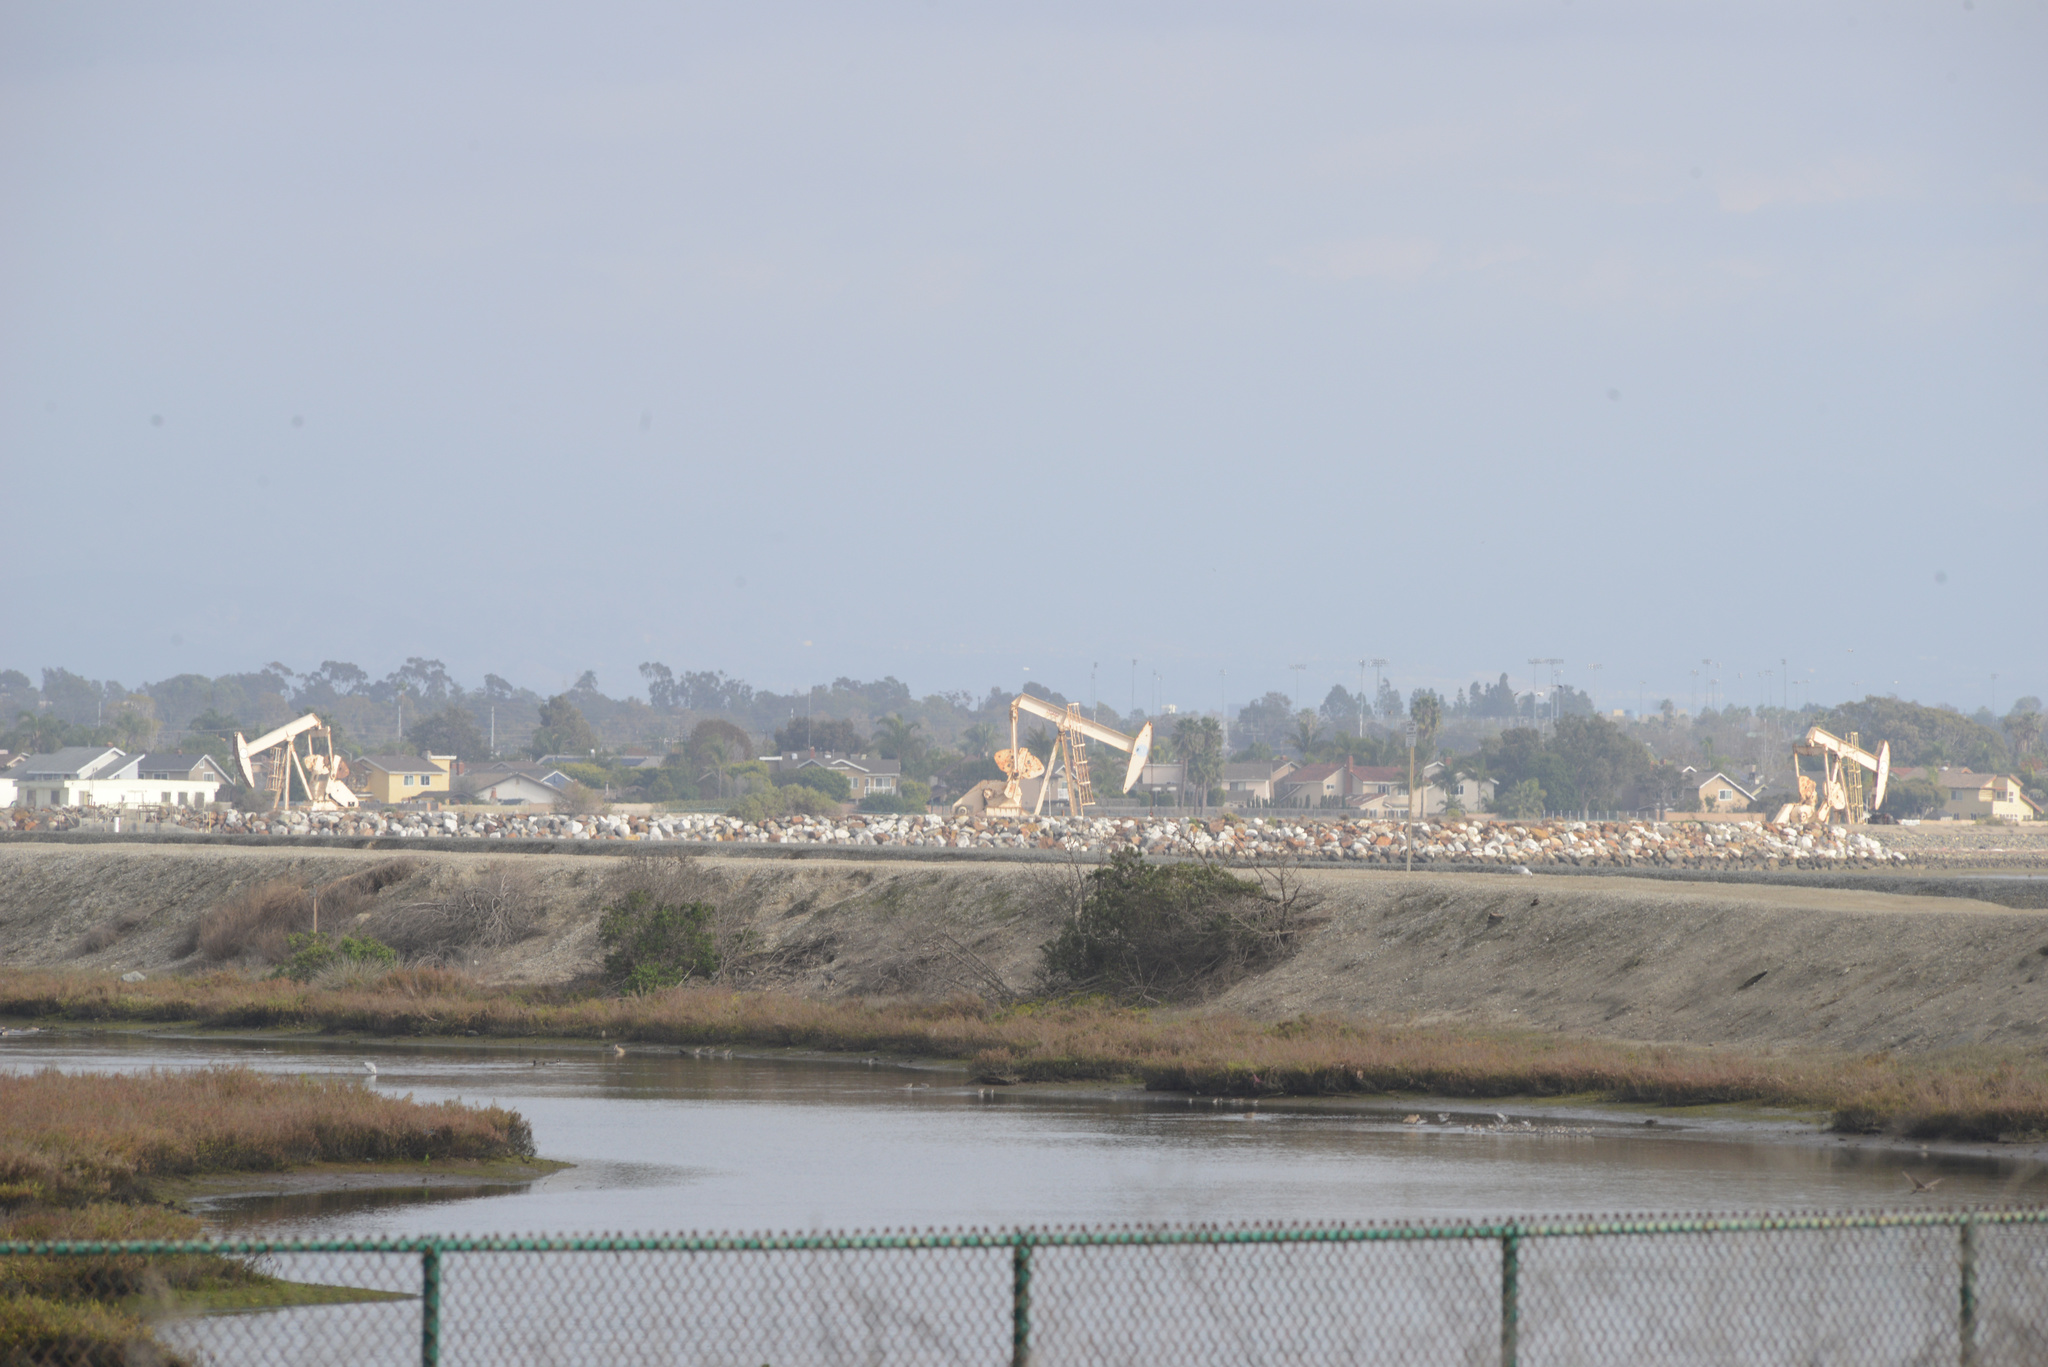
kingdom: Plantae
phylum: Tracheophyta
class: Magnoliopsida
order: Lamiales
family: Scrophulariaceae
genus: Myoporum
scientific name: Myoporum laetum
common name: Ngaio tree
